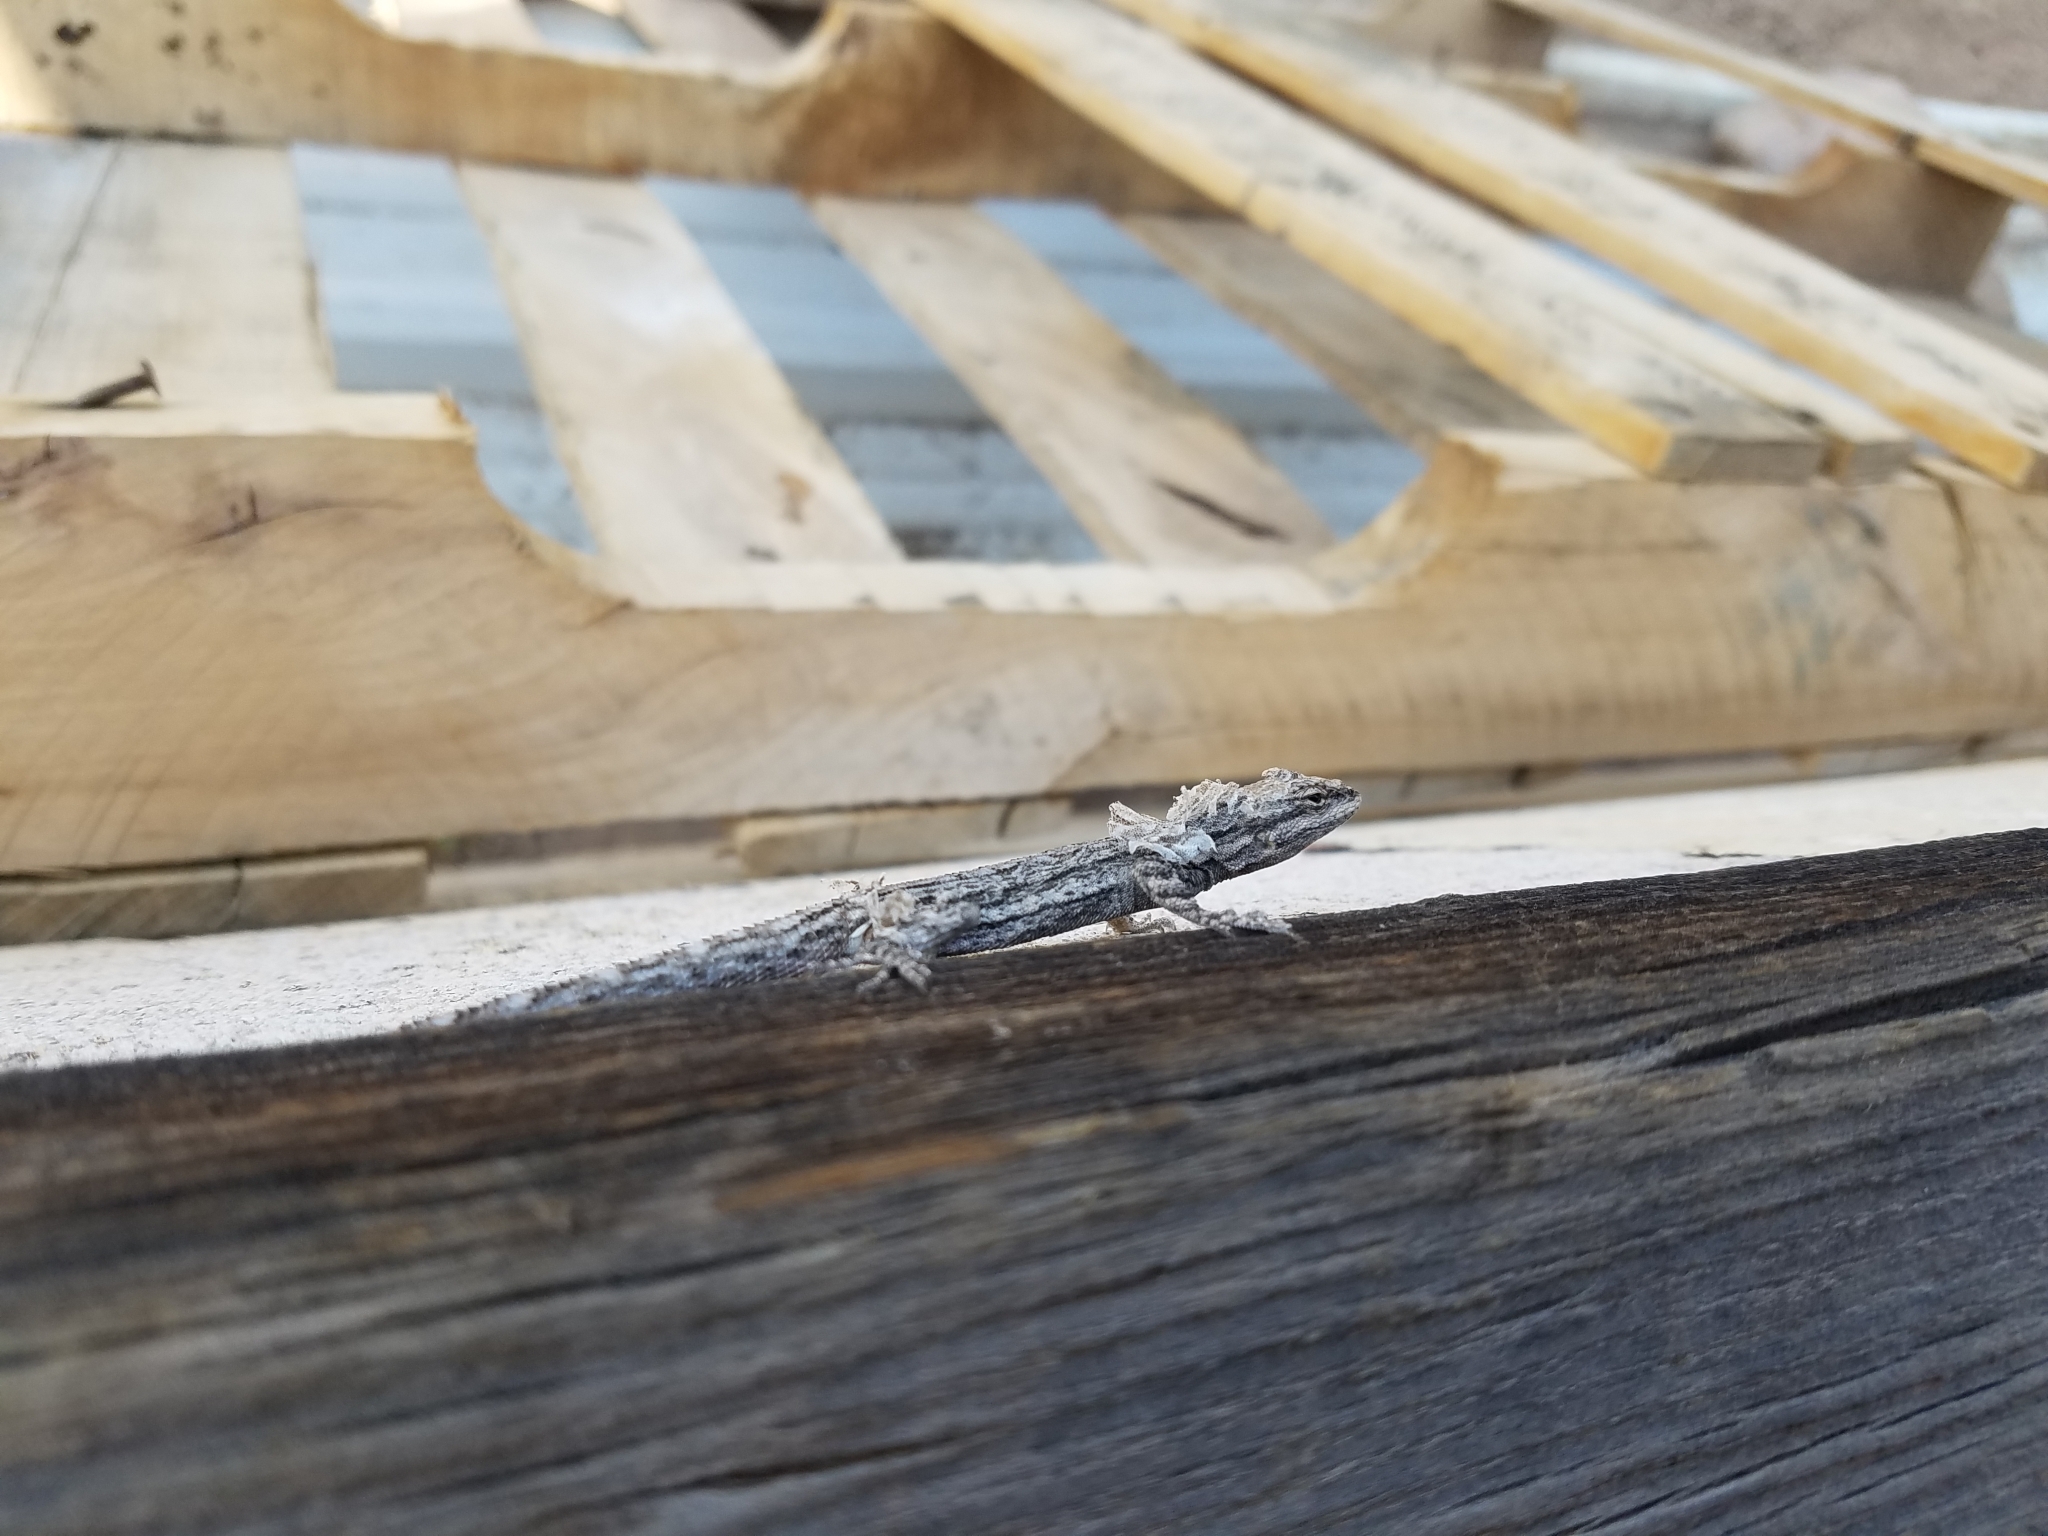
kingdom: Animalia
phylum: Chordata
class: Squamata
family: Phrynosomatidae
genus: Urosaurus
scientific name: Urosaurus ornatus
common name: Ornate tree lizard
